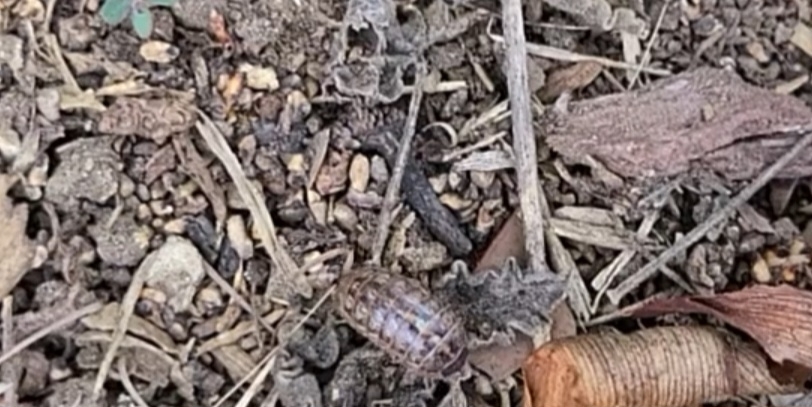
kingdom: Animalia
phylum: Arthropoda
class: Malacostraca
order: Isopoda
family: Armadillidiidae
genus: Armadillidium
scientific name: Armadillidium vulgare
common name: Common pill woodlouse
